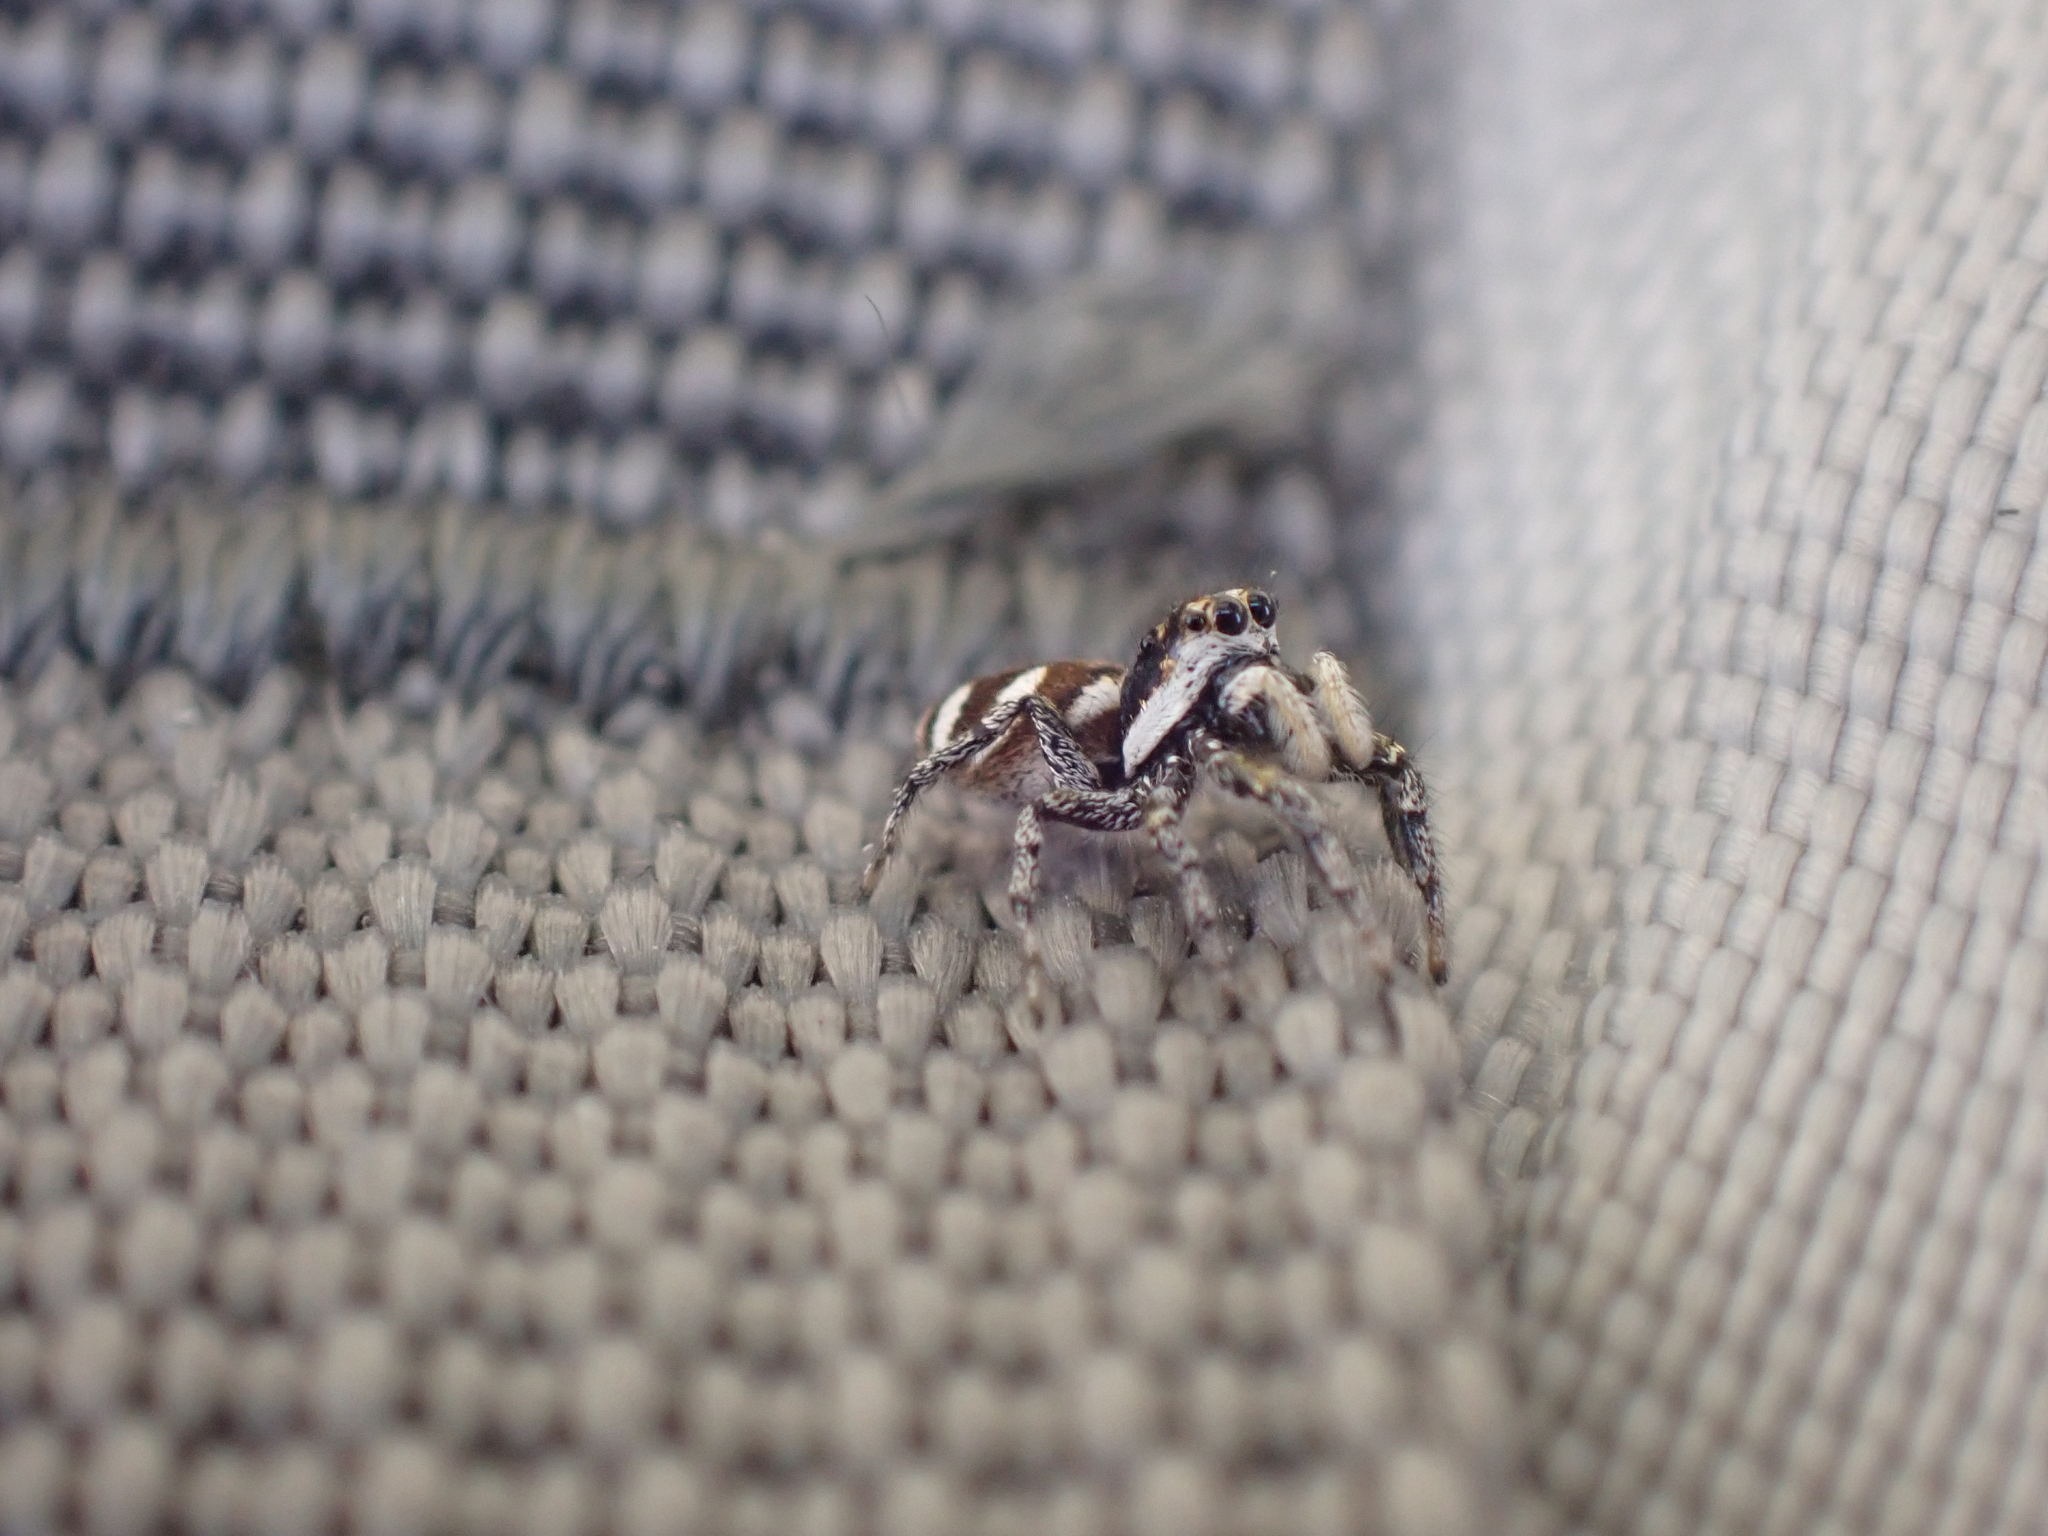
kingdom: Animalia
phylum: Arthropoda
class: Arachnida
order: Araneae
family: Salticidae
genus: Salticus
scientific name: Salticus scenicus
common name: Zebra jumper
